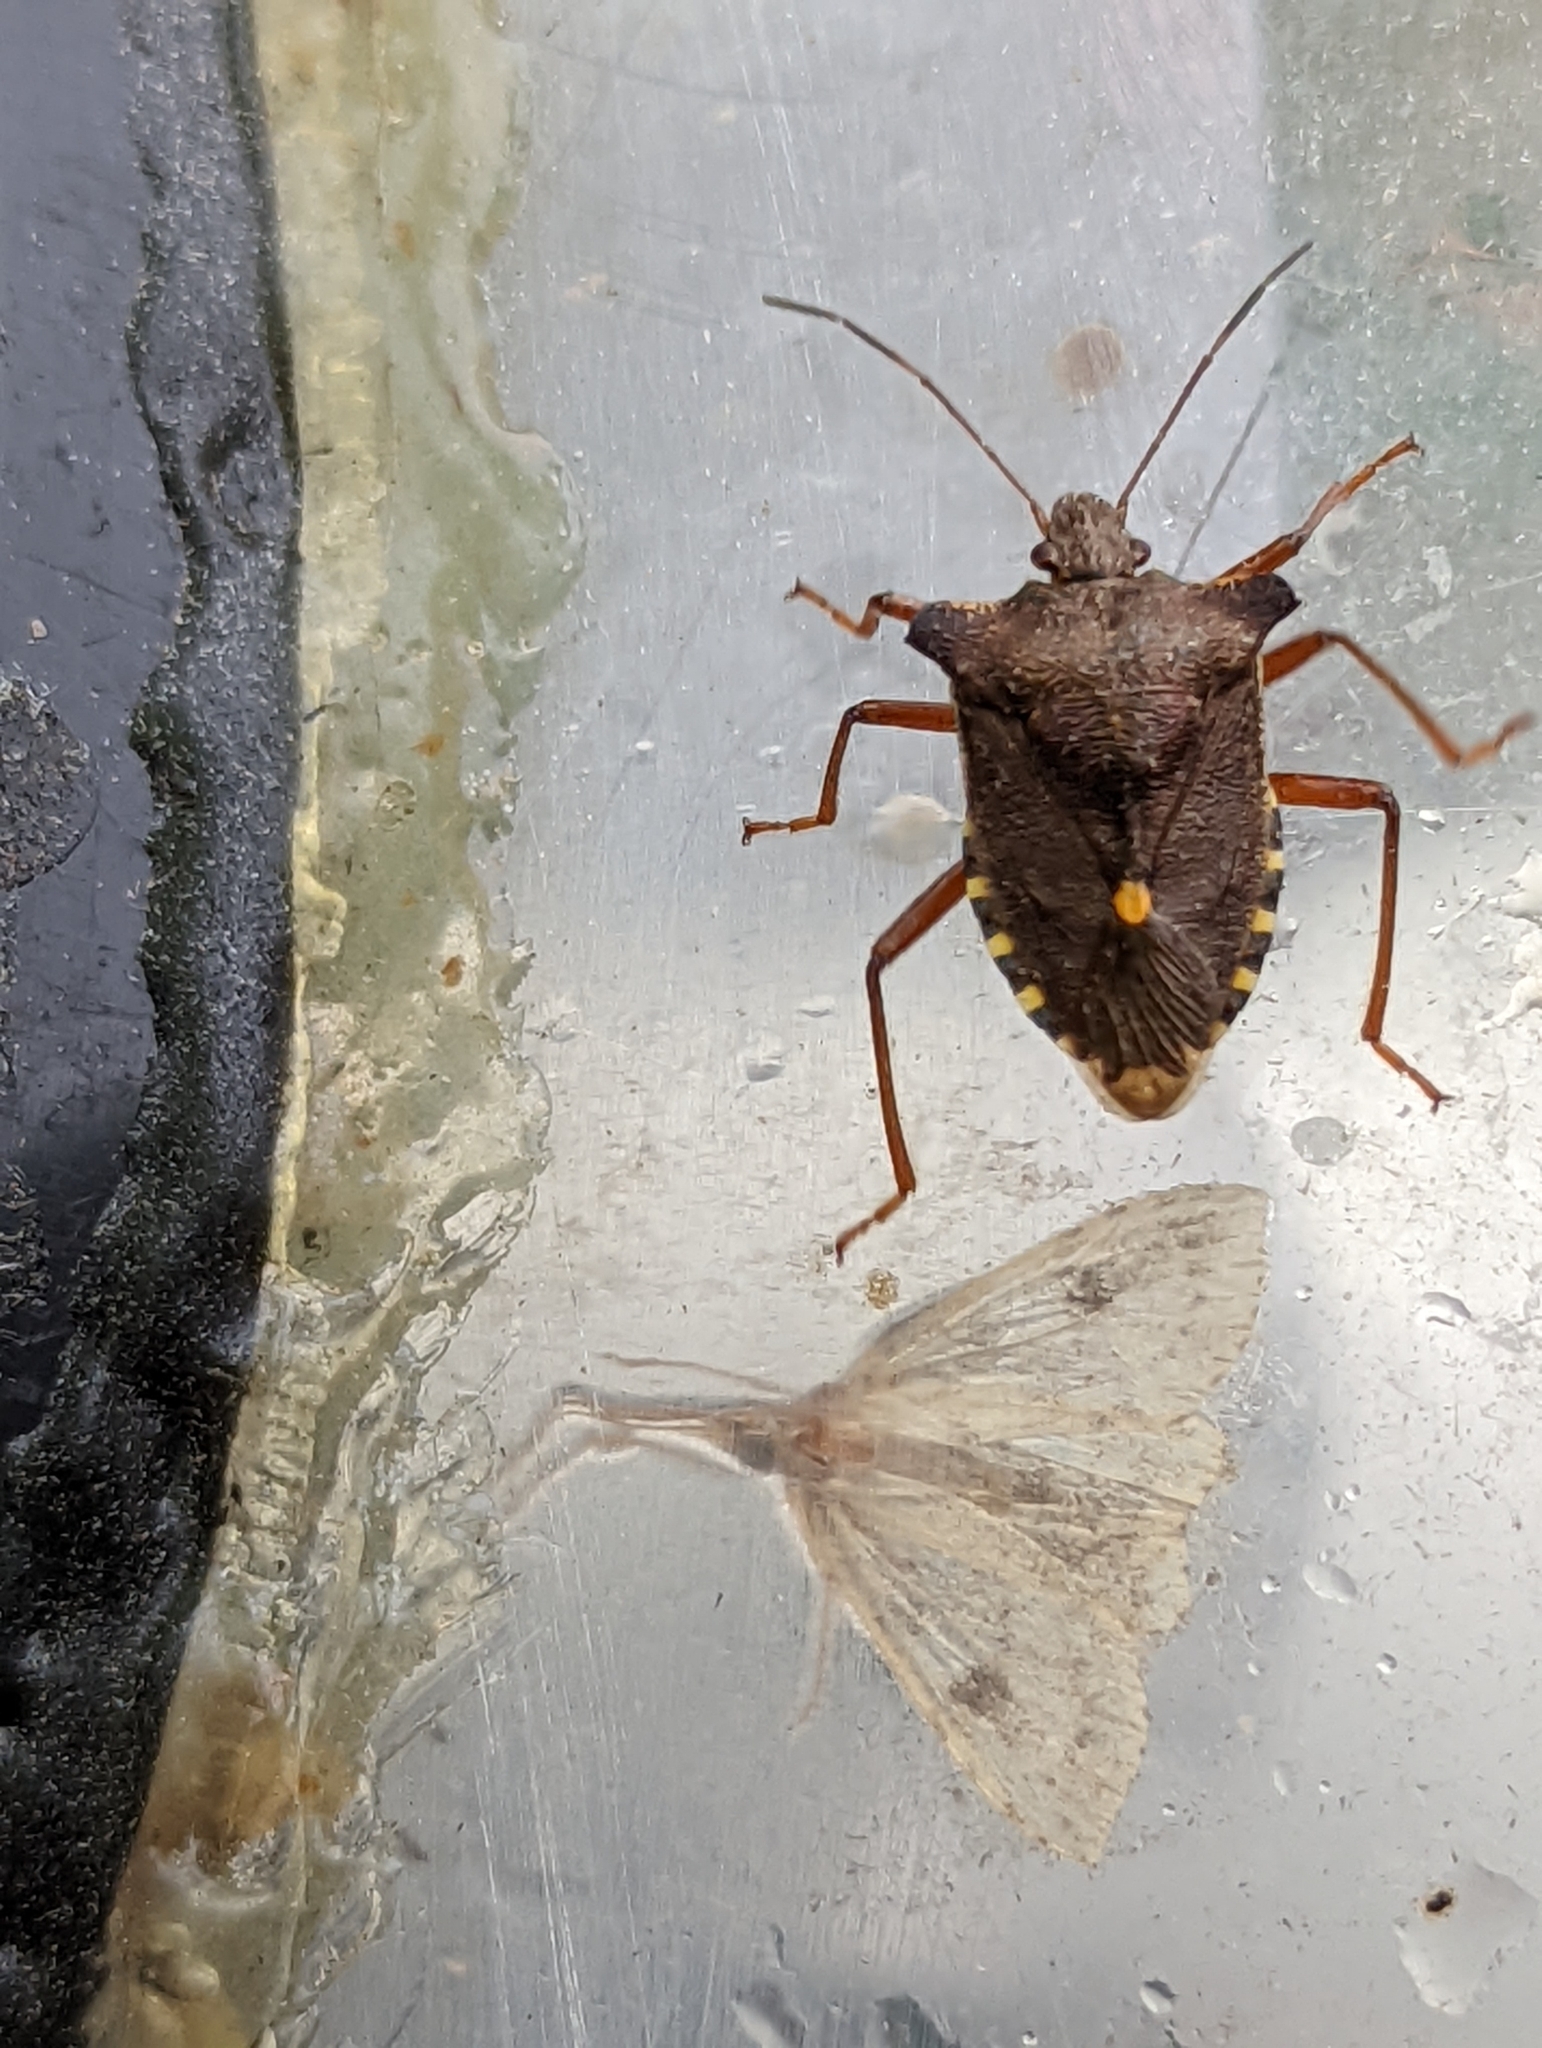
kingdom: Animalia
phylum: Arthropoda
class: Insecta
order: Hemiptera
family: Pentatomidae
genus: Pentatoma
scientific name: Pentatoma rufipes
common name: Forest bug
